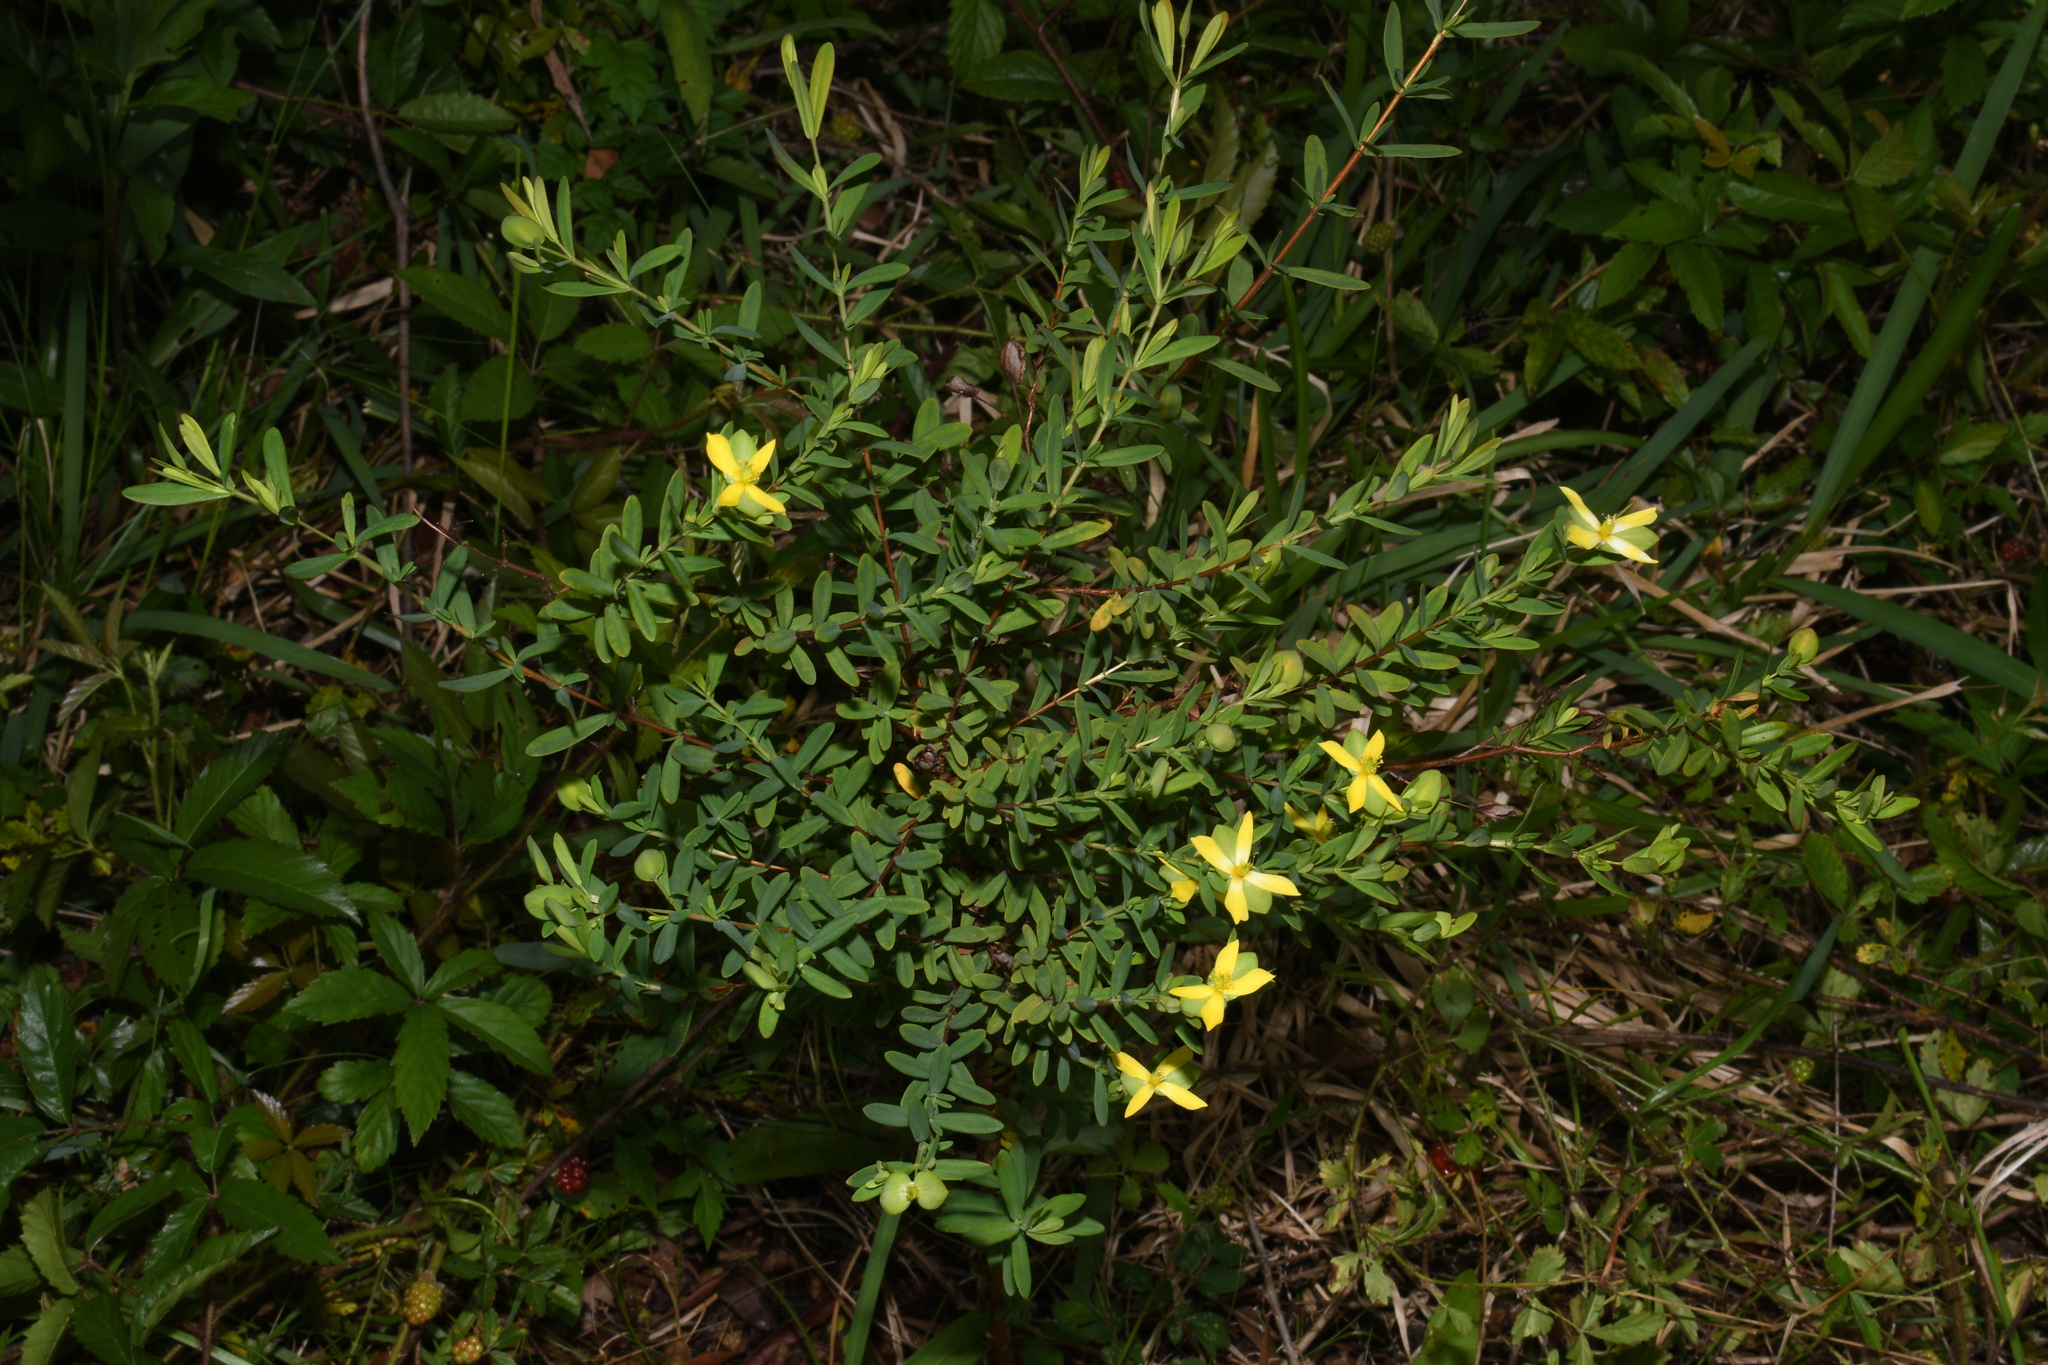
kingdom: Plantae
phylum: Tracheophyta
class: Magnoliopsida
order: Malpighiales
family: Hypericaceae
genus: Hypericum
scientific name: Hypericum hypericoides
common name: St. andrew's cross
